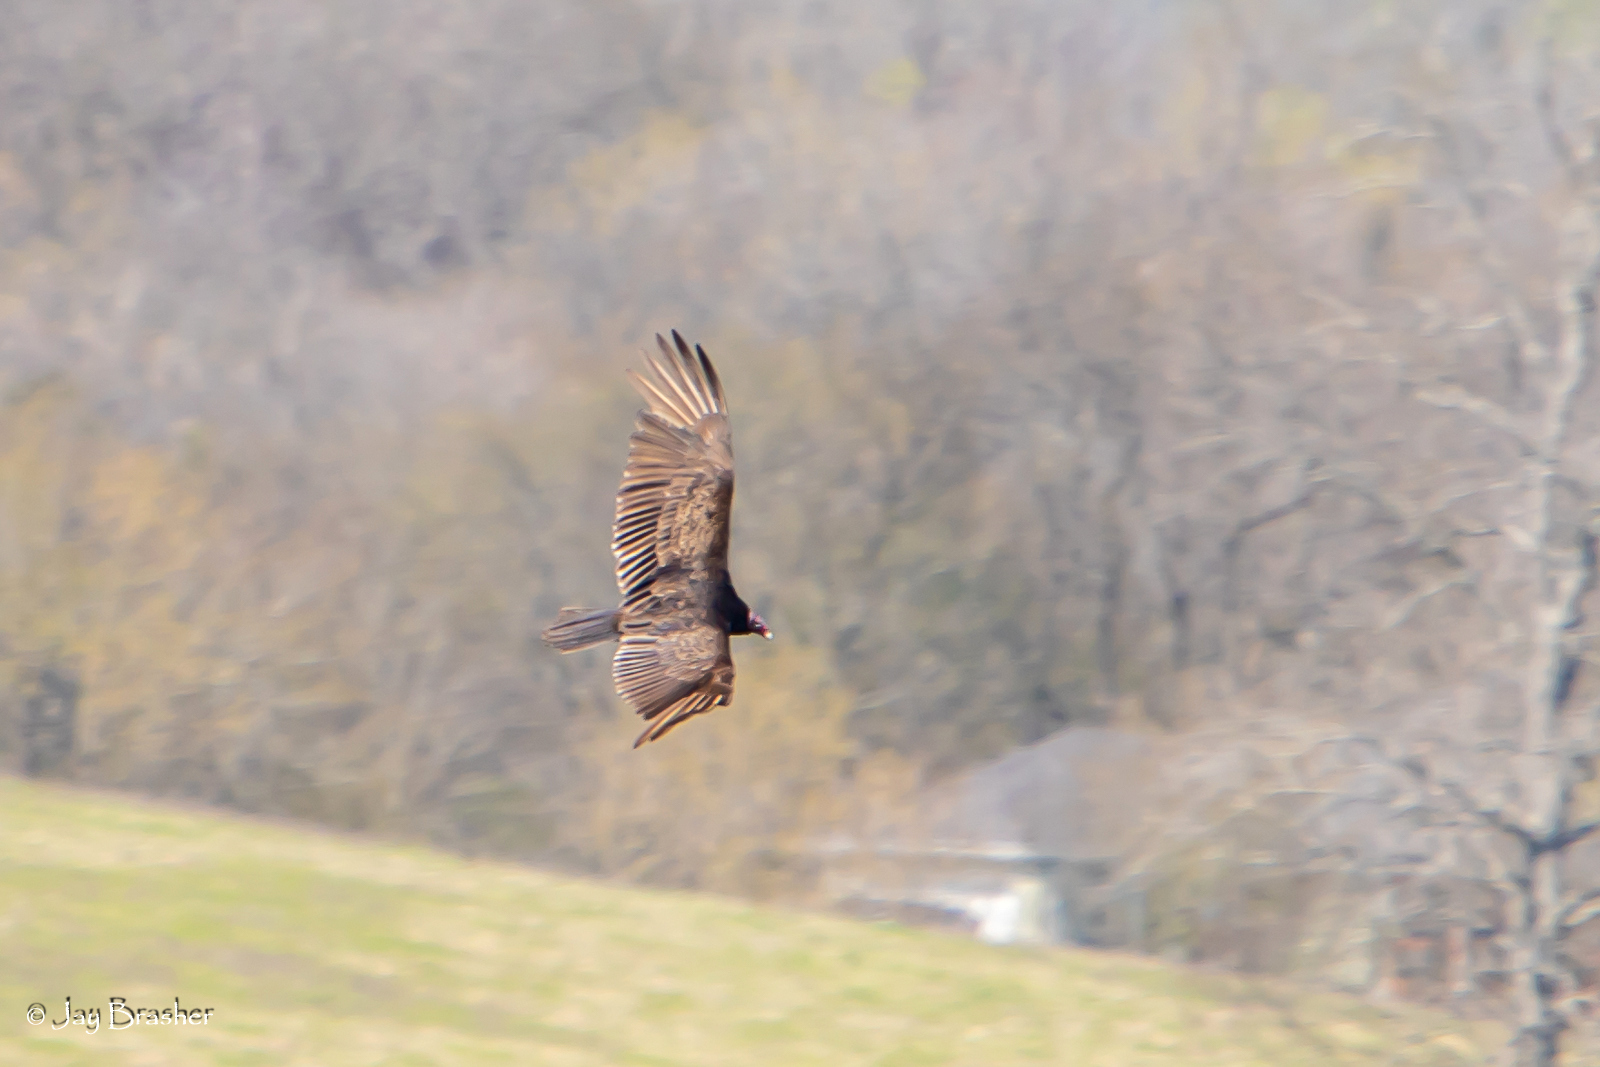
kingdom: Animalia
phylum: Chordata
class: Aves
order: Accipitriformes
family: Cathartidae
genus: Cathartes
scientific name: Cathartes aura
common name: Turkey vulture
